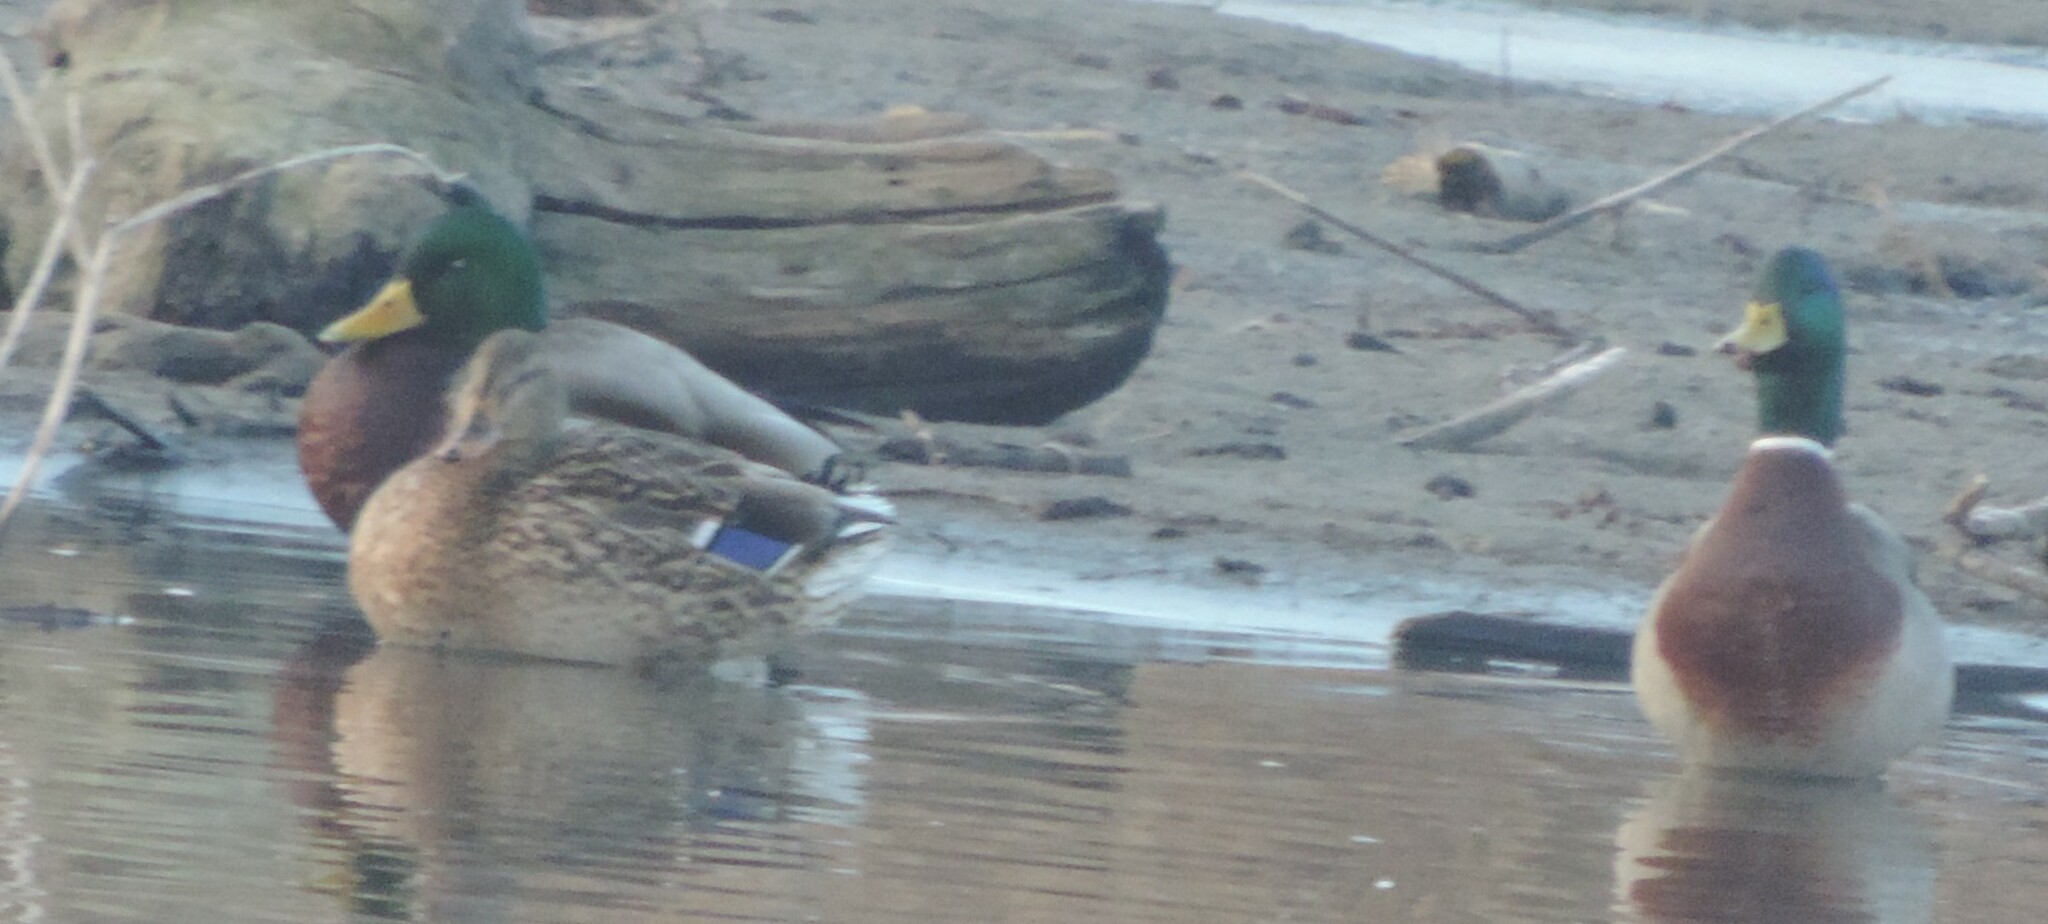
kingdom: Animalia
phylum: Chordata
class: Aves
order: Anseriformes
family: Anatidae
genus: Anas
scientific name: Anas platyrhynchos
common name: Mallard
